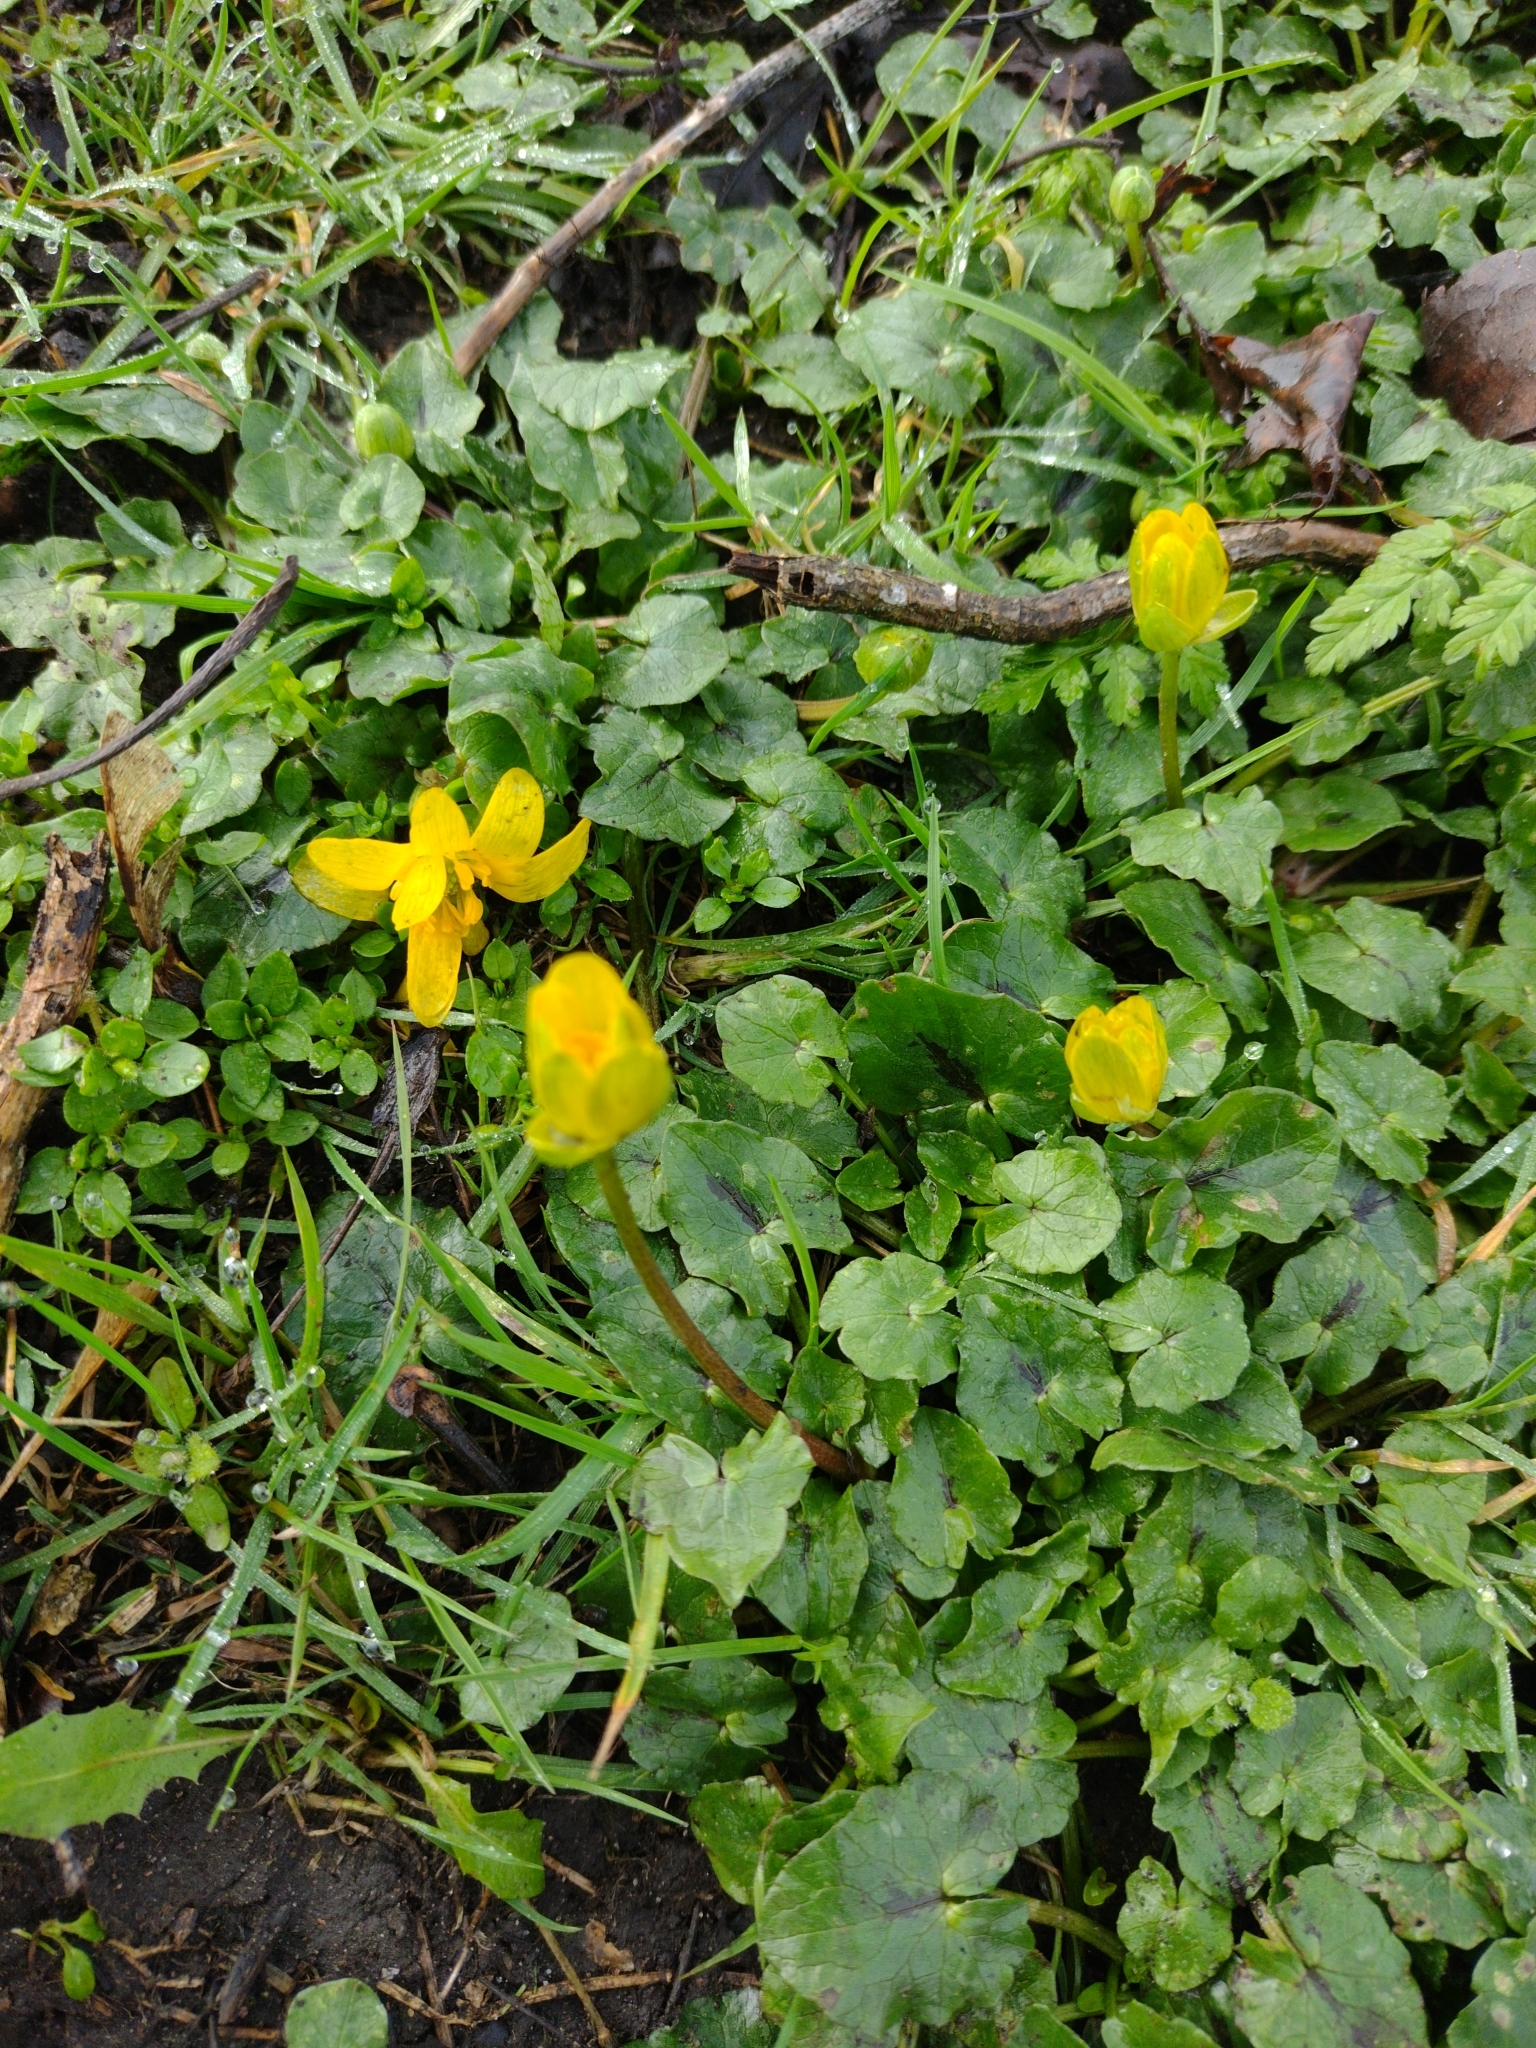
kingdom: Plantae
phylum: Tracheophyta
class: Magnoliopsida
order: Ranunculales
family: Ranunculaceae
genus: Ficaria
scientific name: Ficaria verna
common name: Lesser celandine
